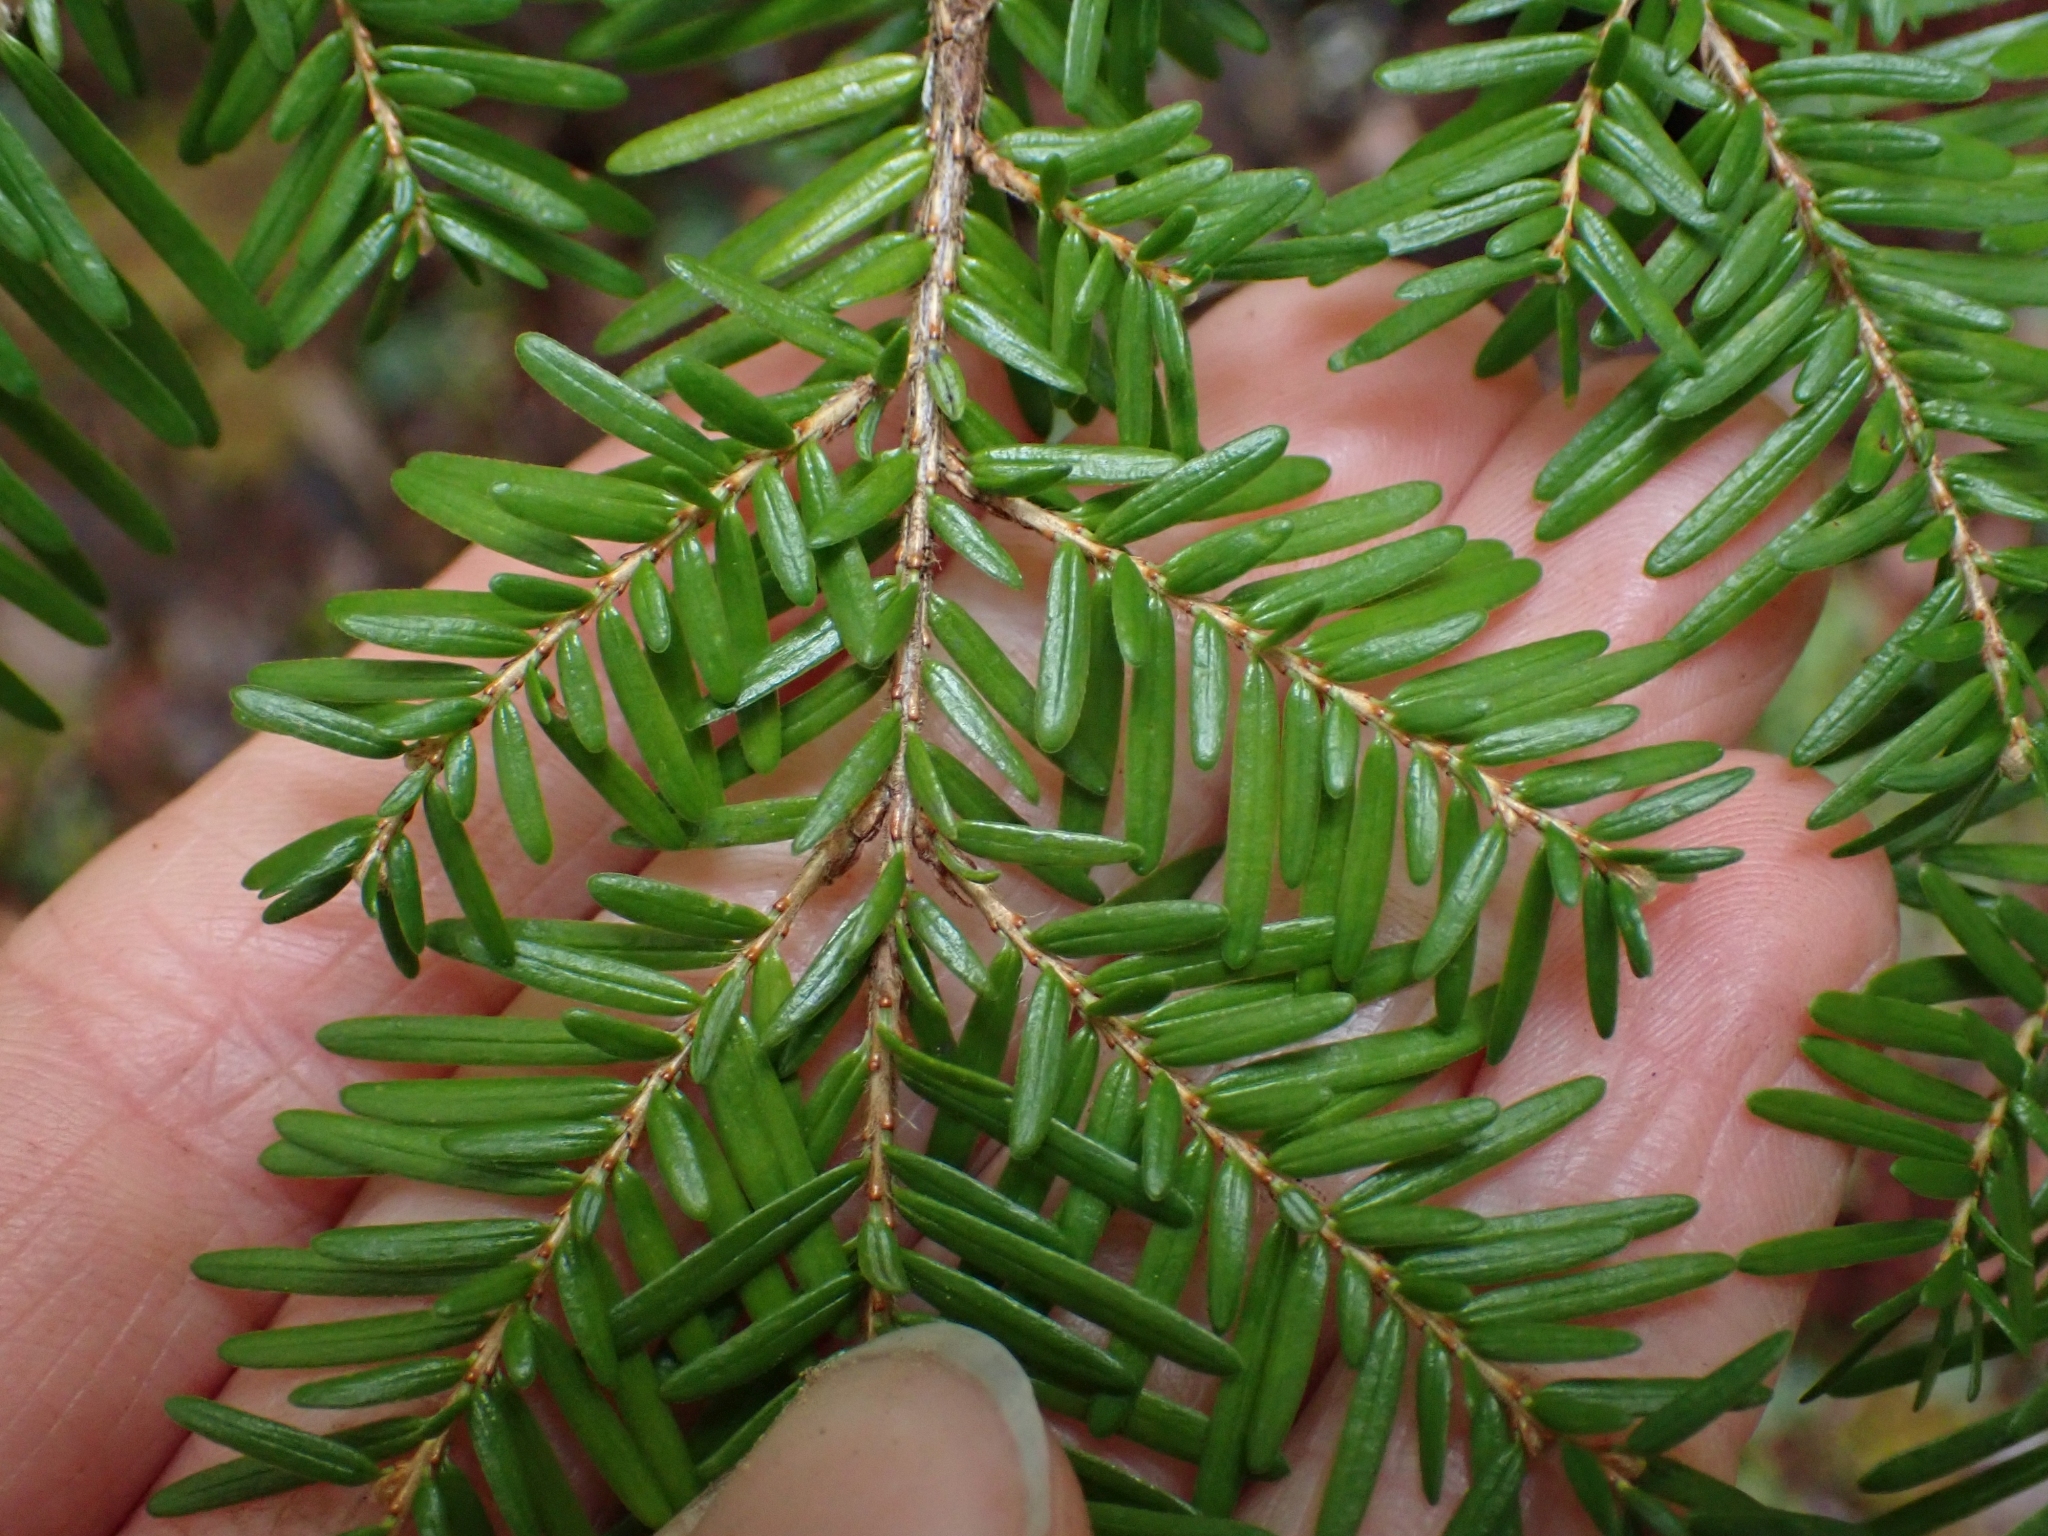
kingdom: Plantae
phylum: Tracheophyta
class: Pinopsida
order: Pinales
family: Pinaceae
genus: Tsuga
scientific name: Tsuga heterophylla
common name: Western hemlock
